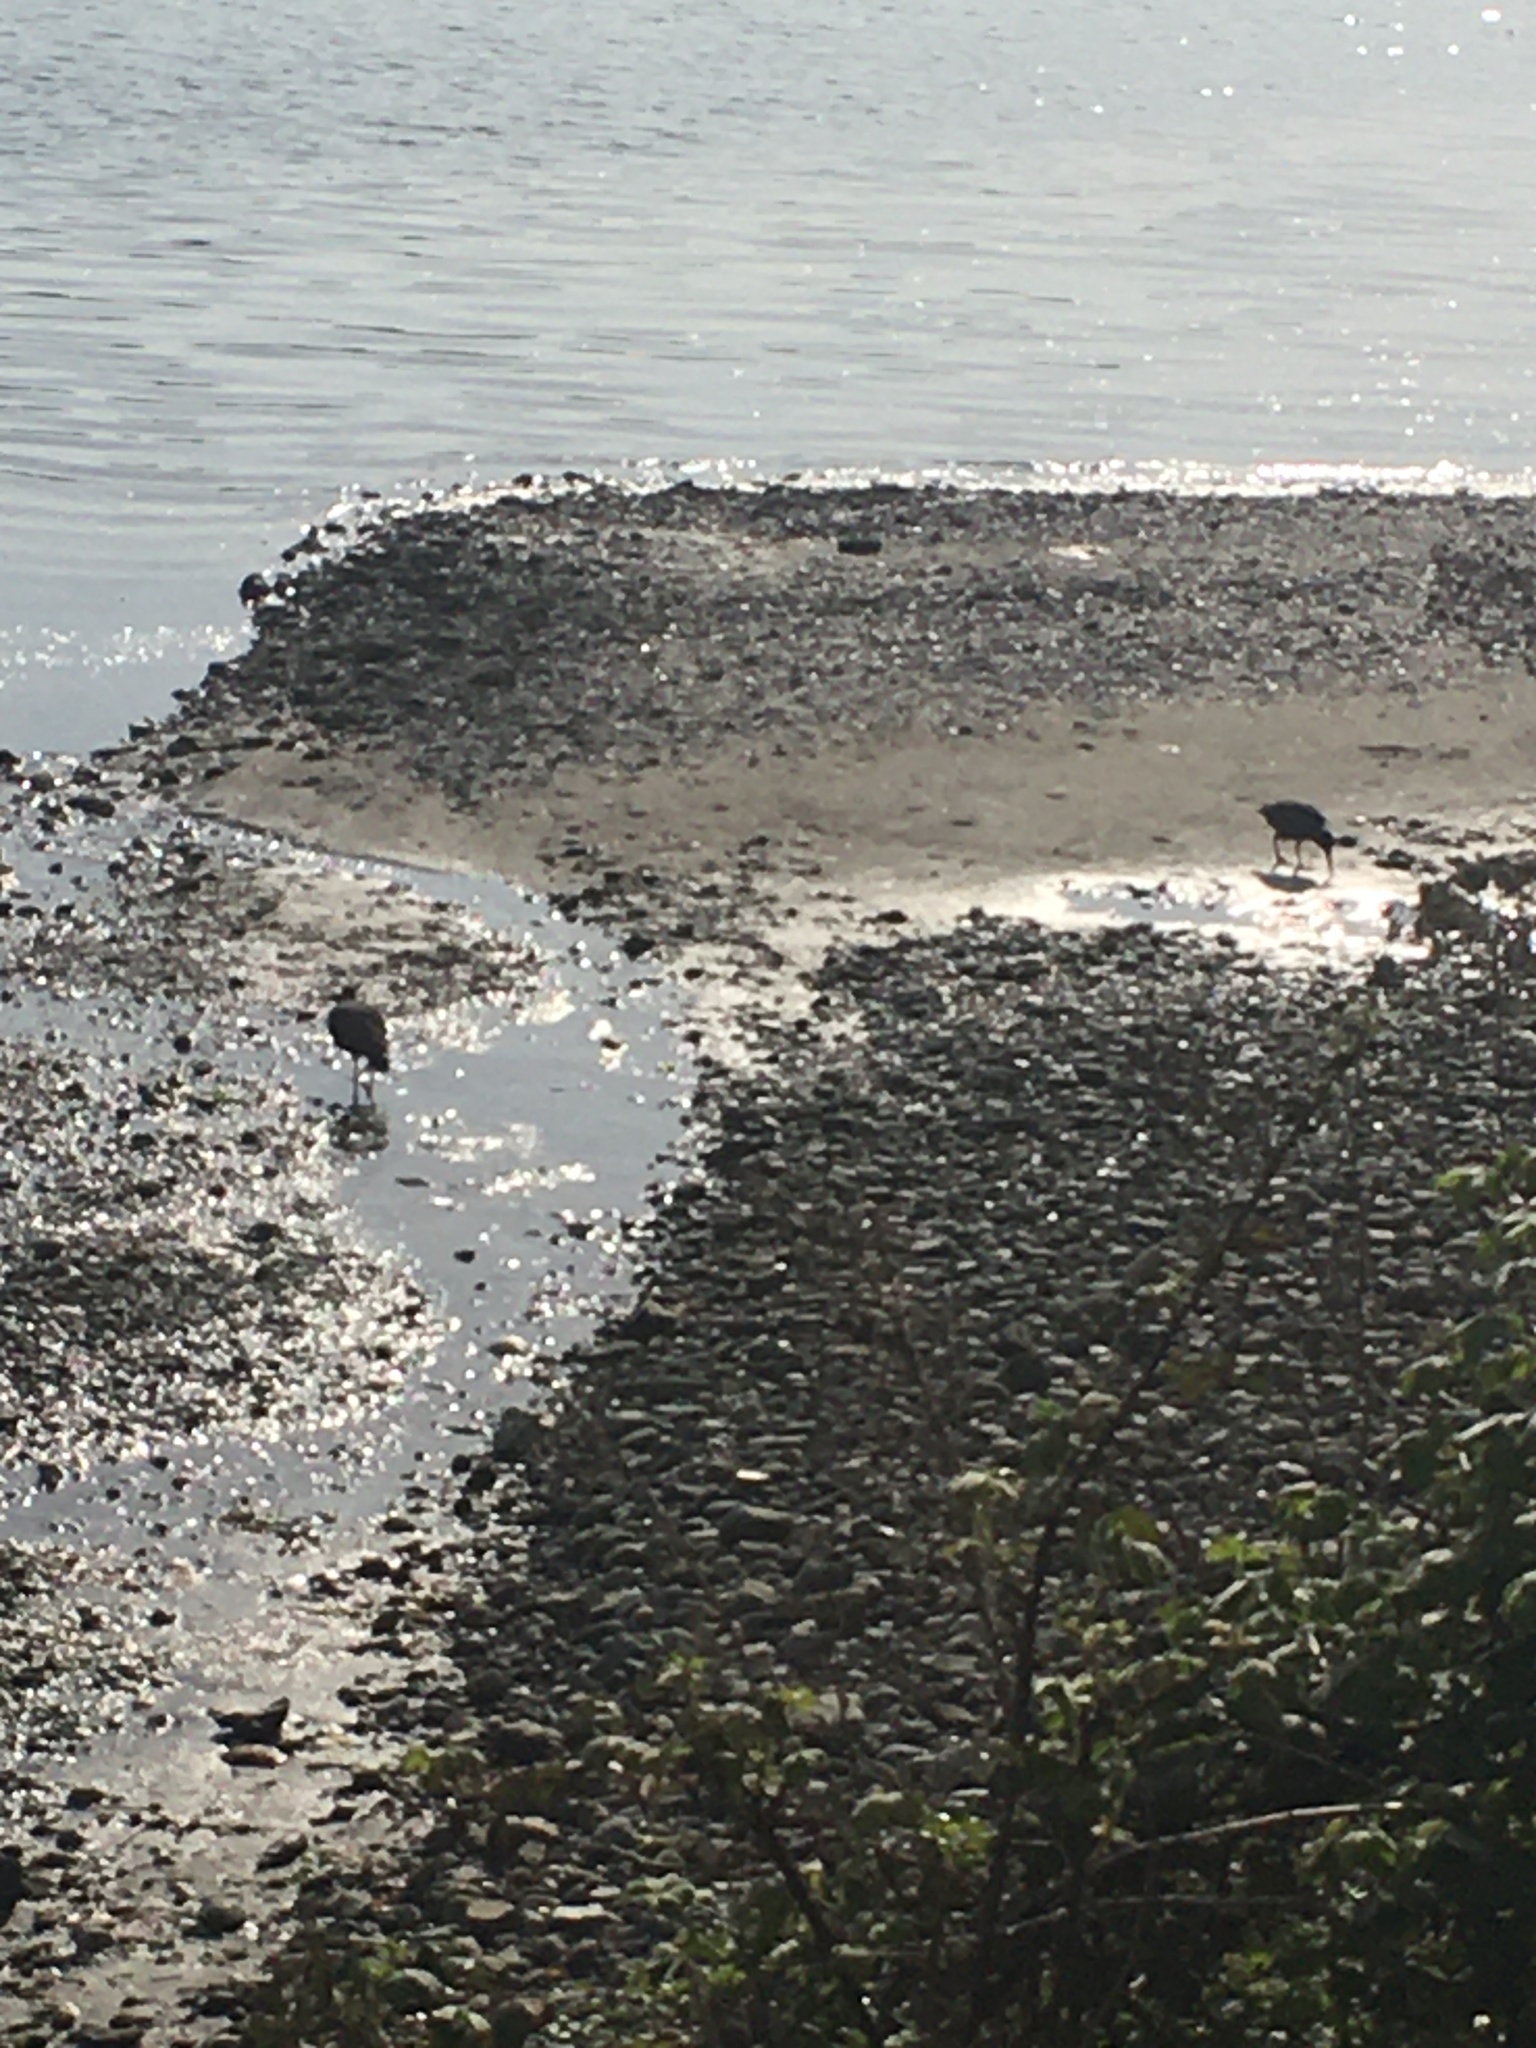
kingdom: Animalia
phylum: Chordata
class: Aves
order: Charadriiformes
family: Haematopodidae
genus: Haematopus
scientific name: Haematopus bachmani
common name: Black oystercatcher
